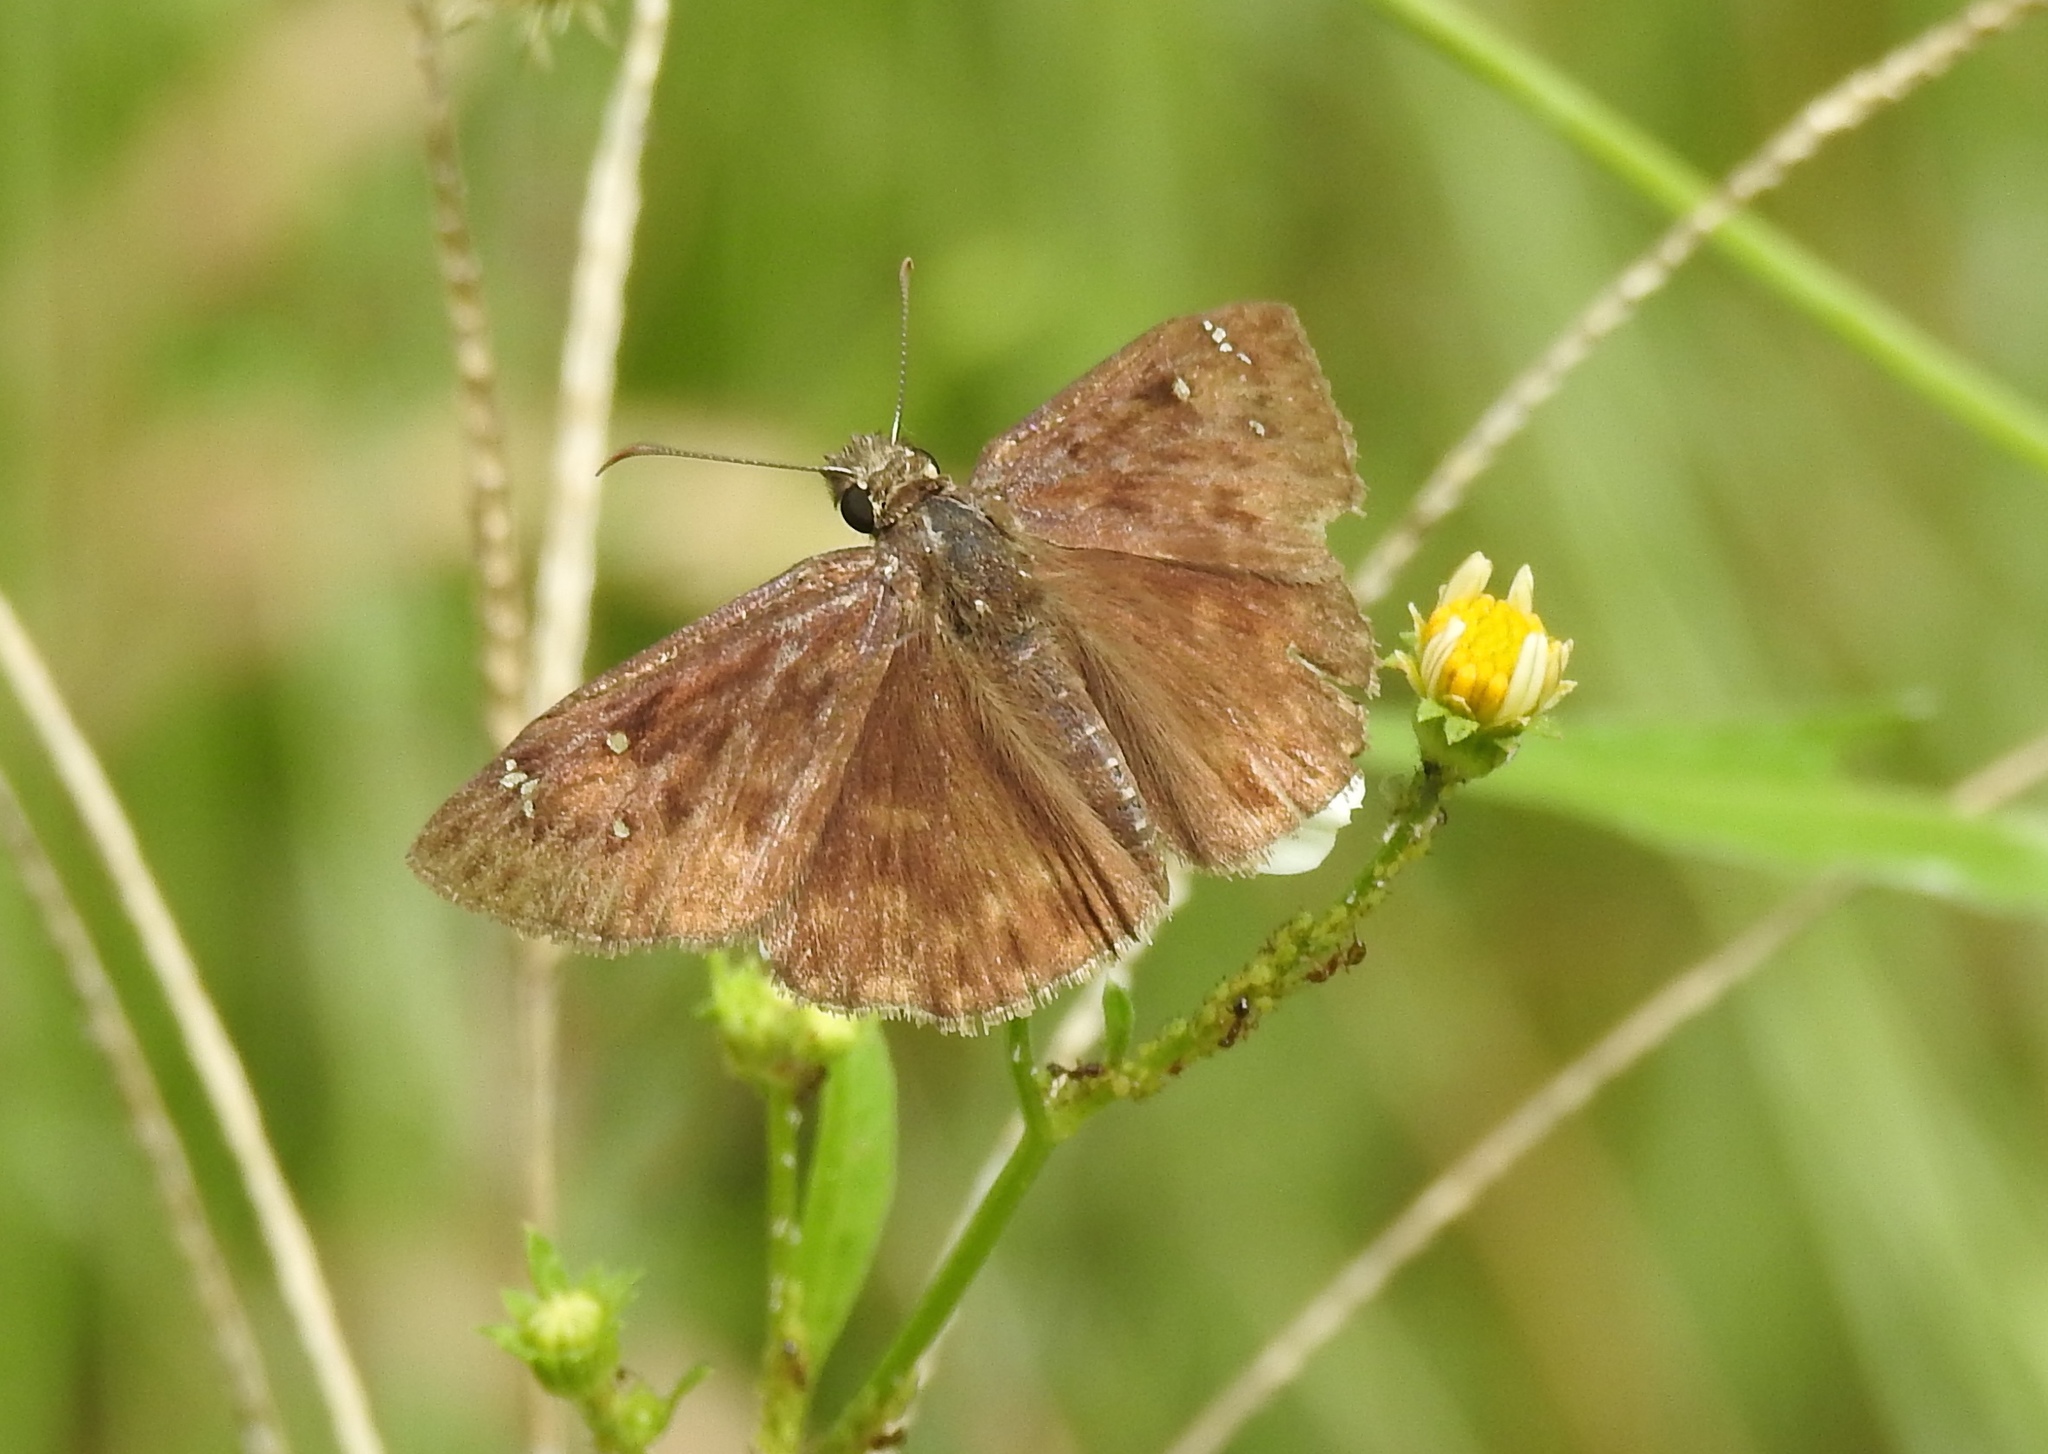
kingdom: Animalia
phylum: Arthropoda
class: Insecta
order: Lepidoptera
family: Hesperiidae
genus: Erynnis
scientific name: Erynnis horatius
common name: Horace's duskywing
